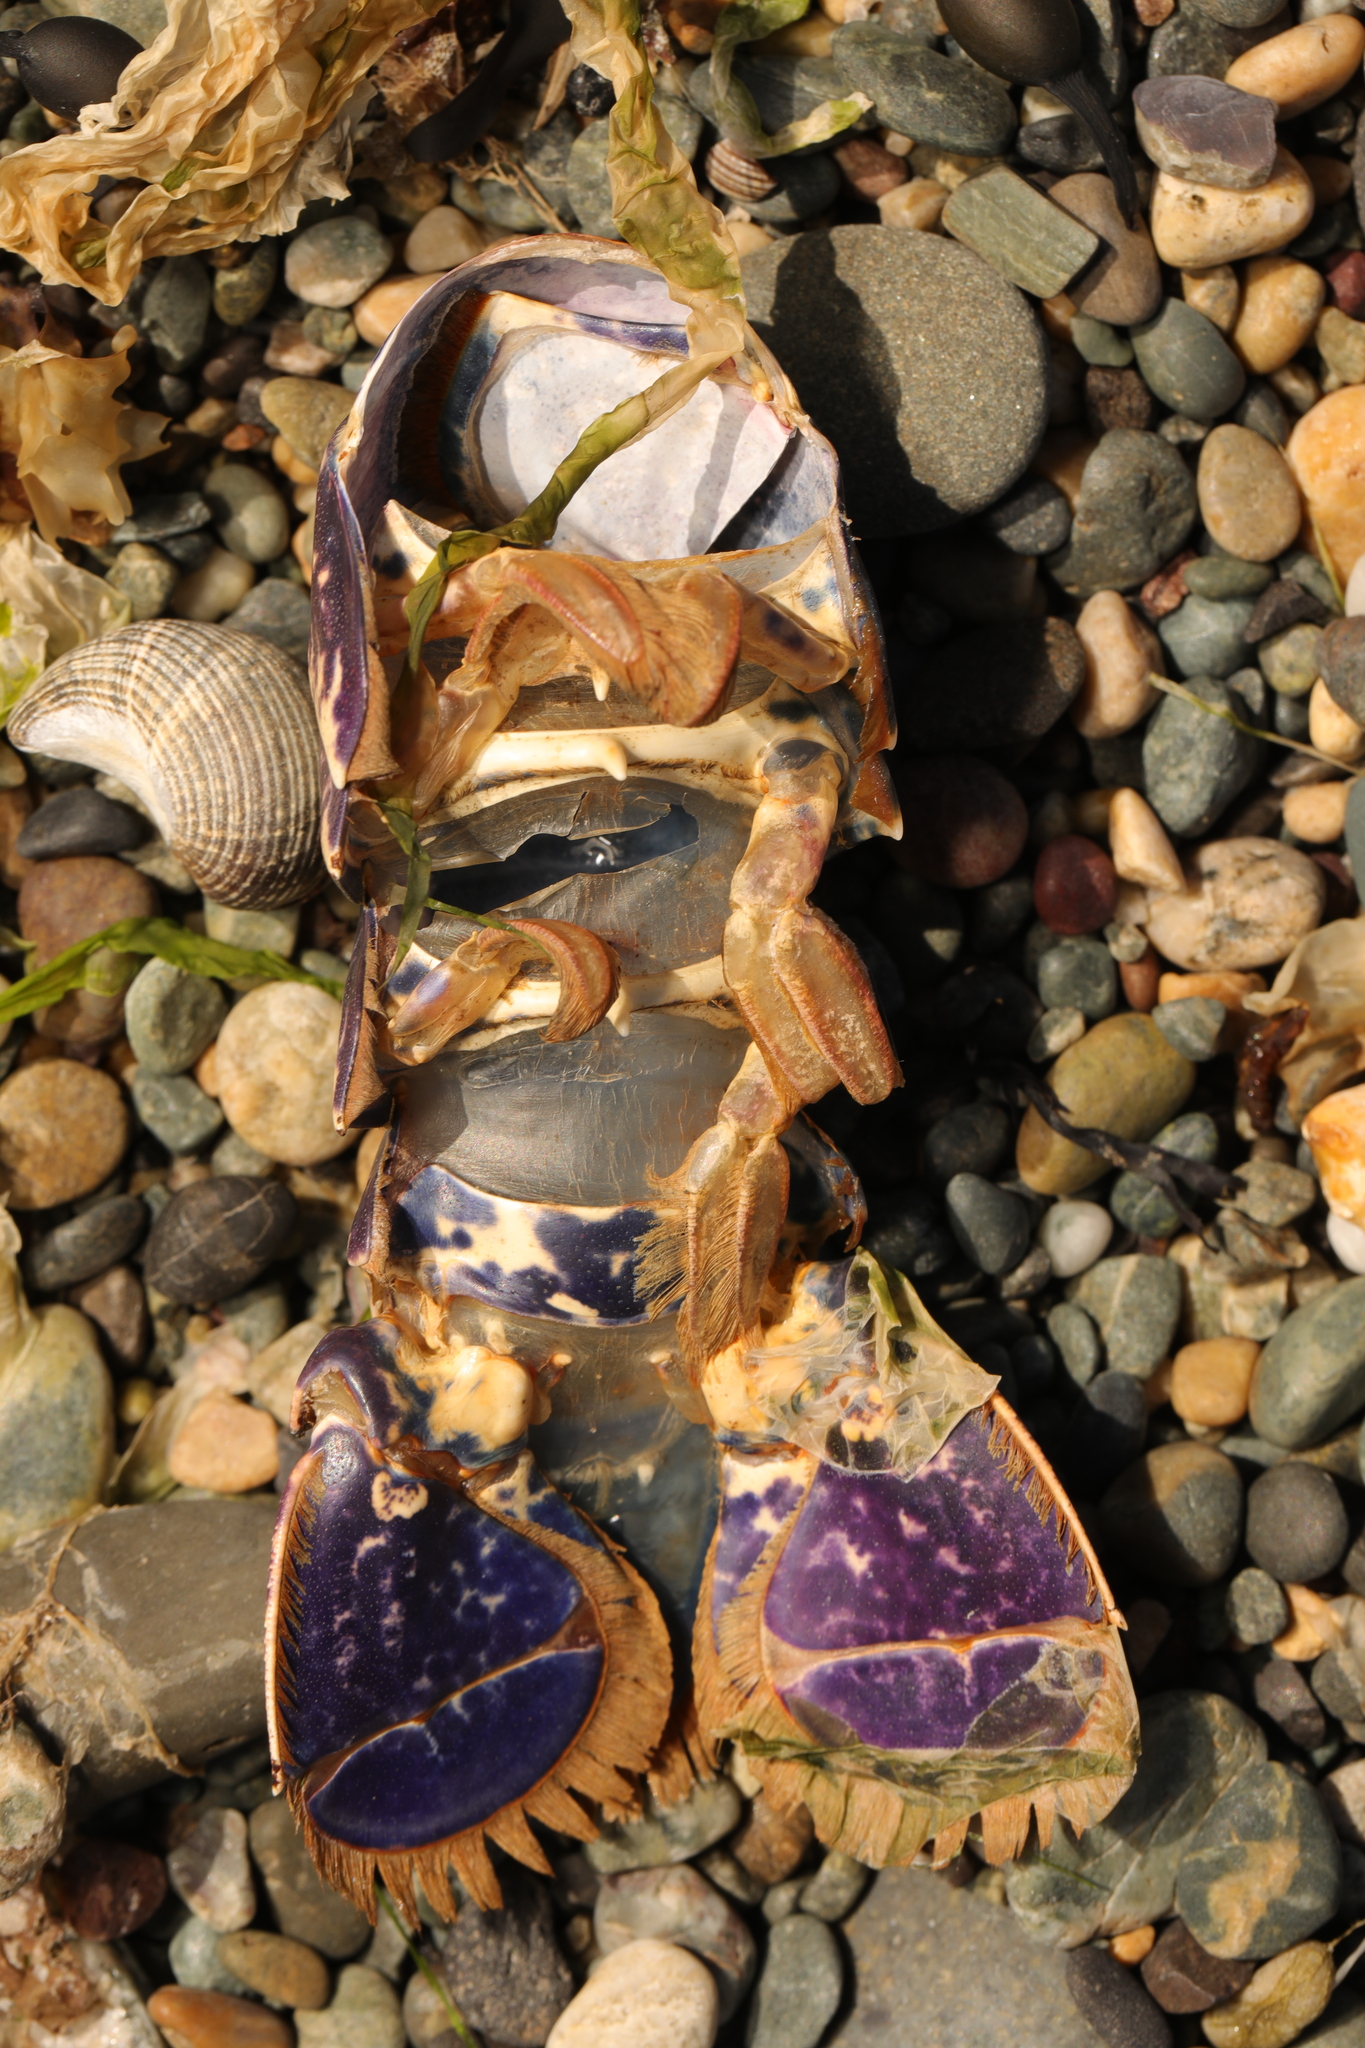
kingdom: Animalia
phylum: Arthropoda
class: Malacostraca
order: Decapoda
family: Nephropidae
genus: Homarus
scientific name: Homarus gammarus
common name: European lobster
